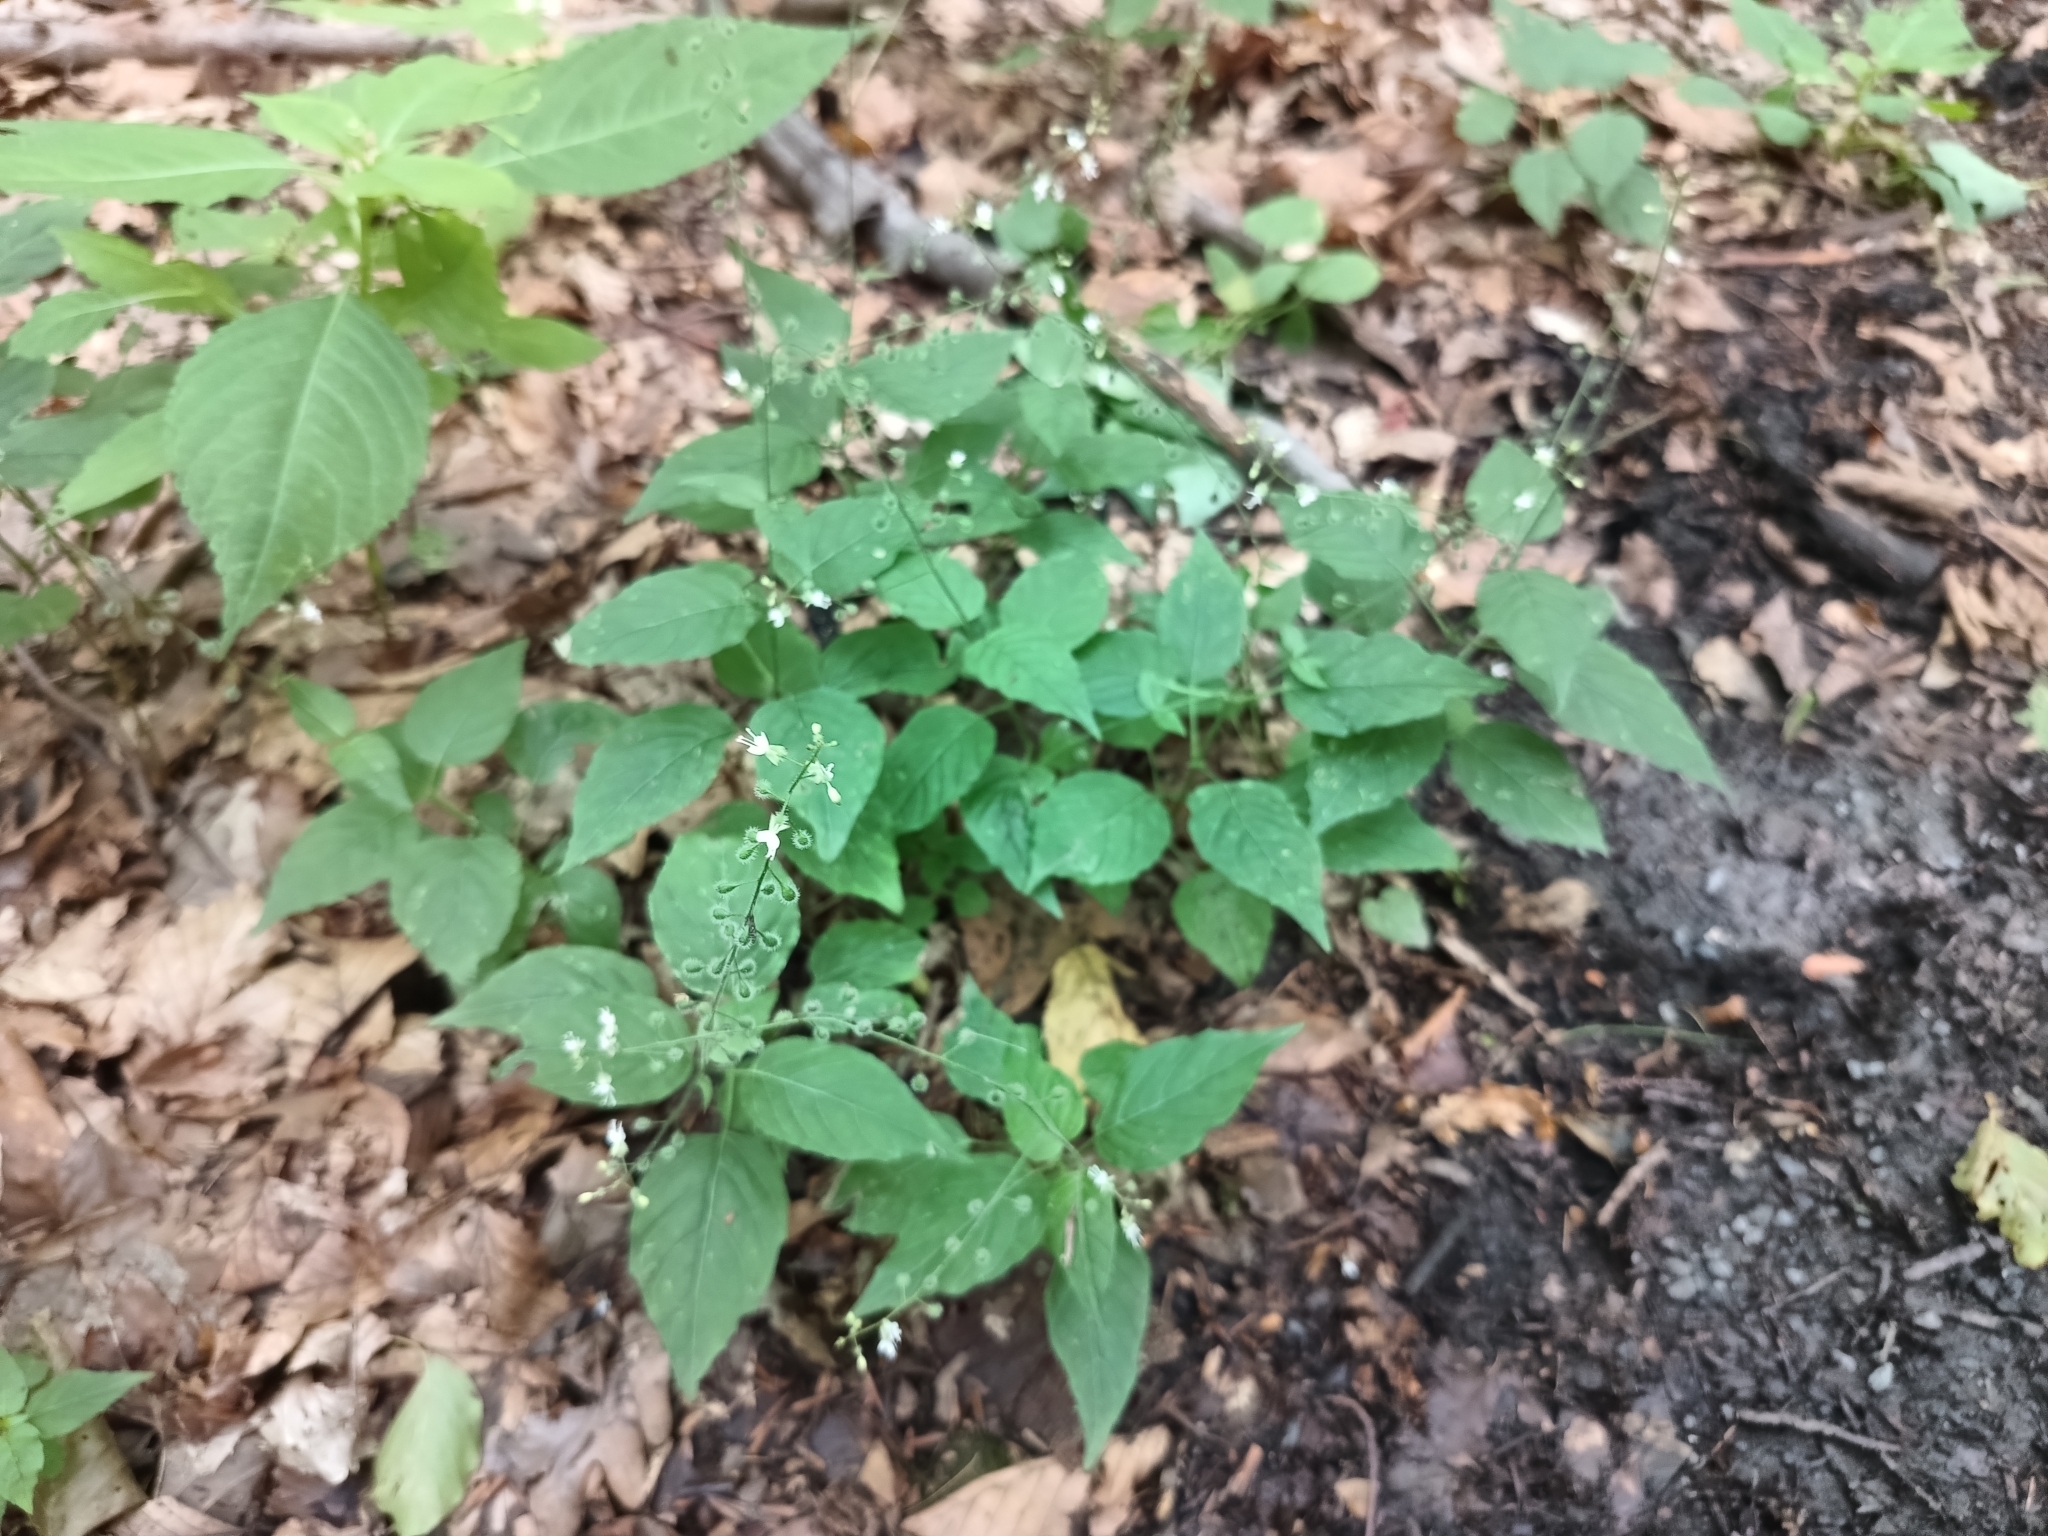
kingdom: Plantae
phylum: Tracheophyta
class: Magnoliopsida
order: Myrtales
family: Onagraceae
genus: Circaea
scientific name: Circaea lutetiana
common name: Enchanter's-nightshade
